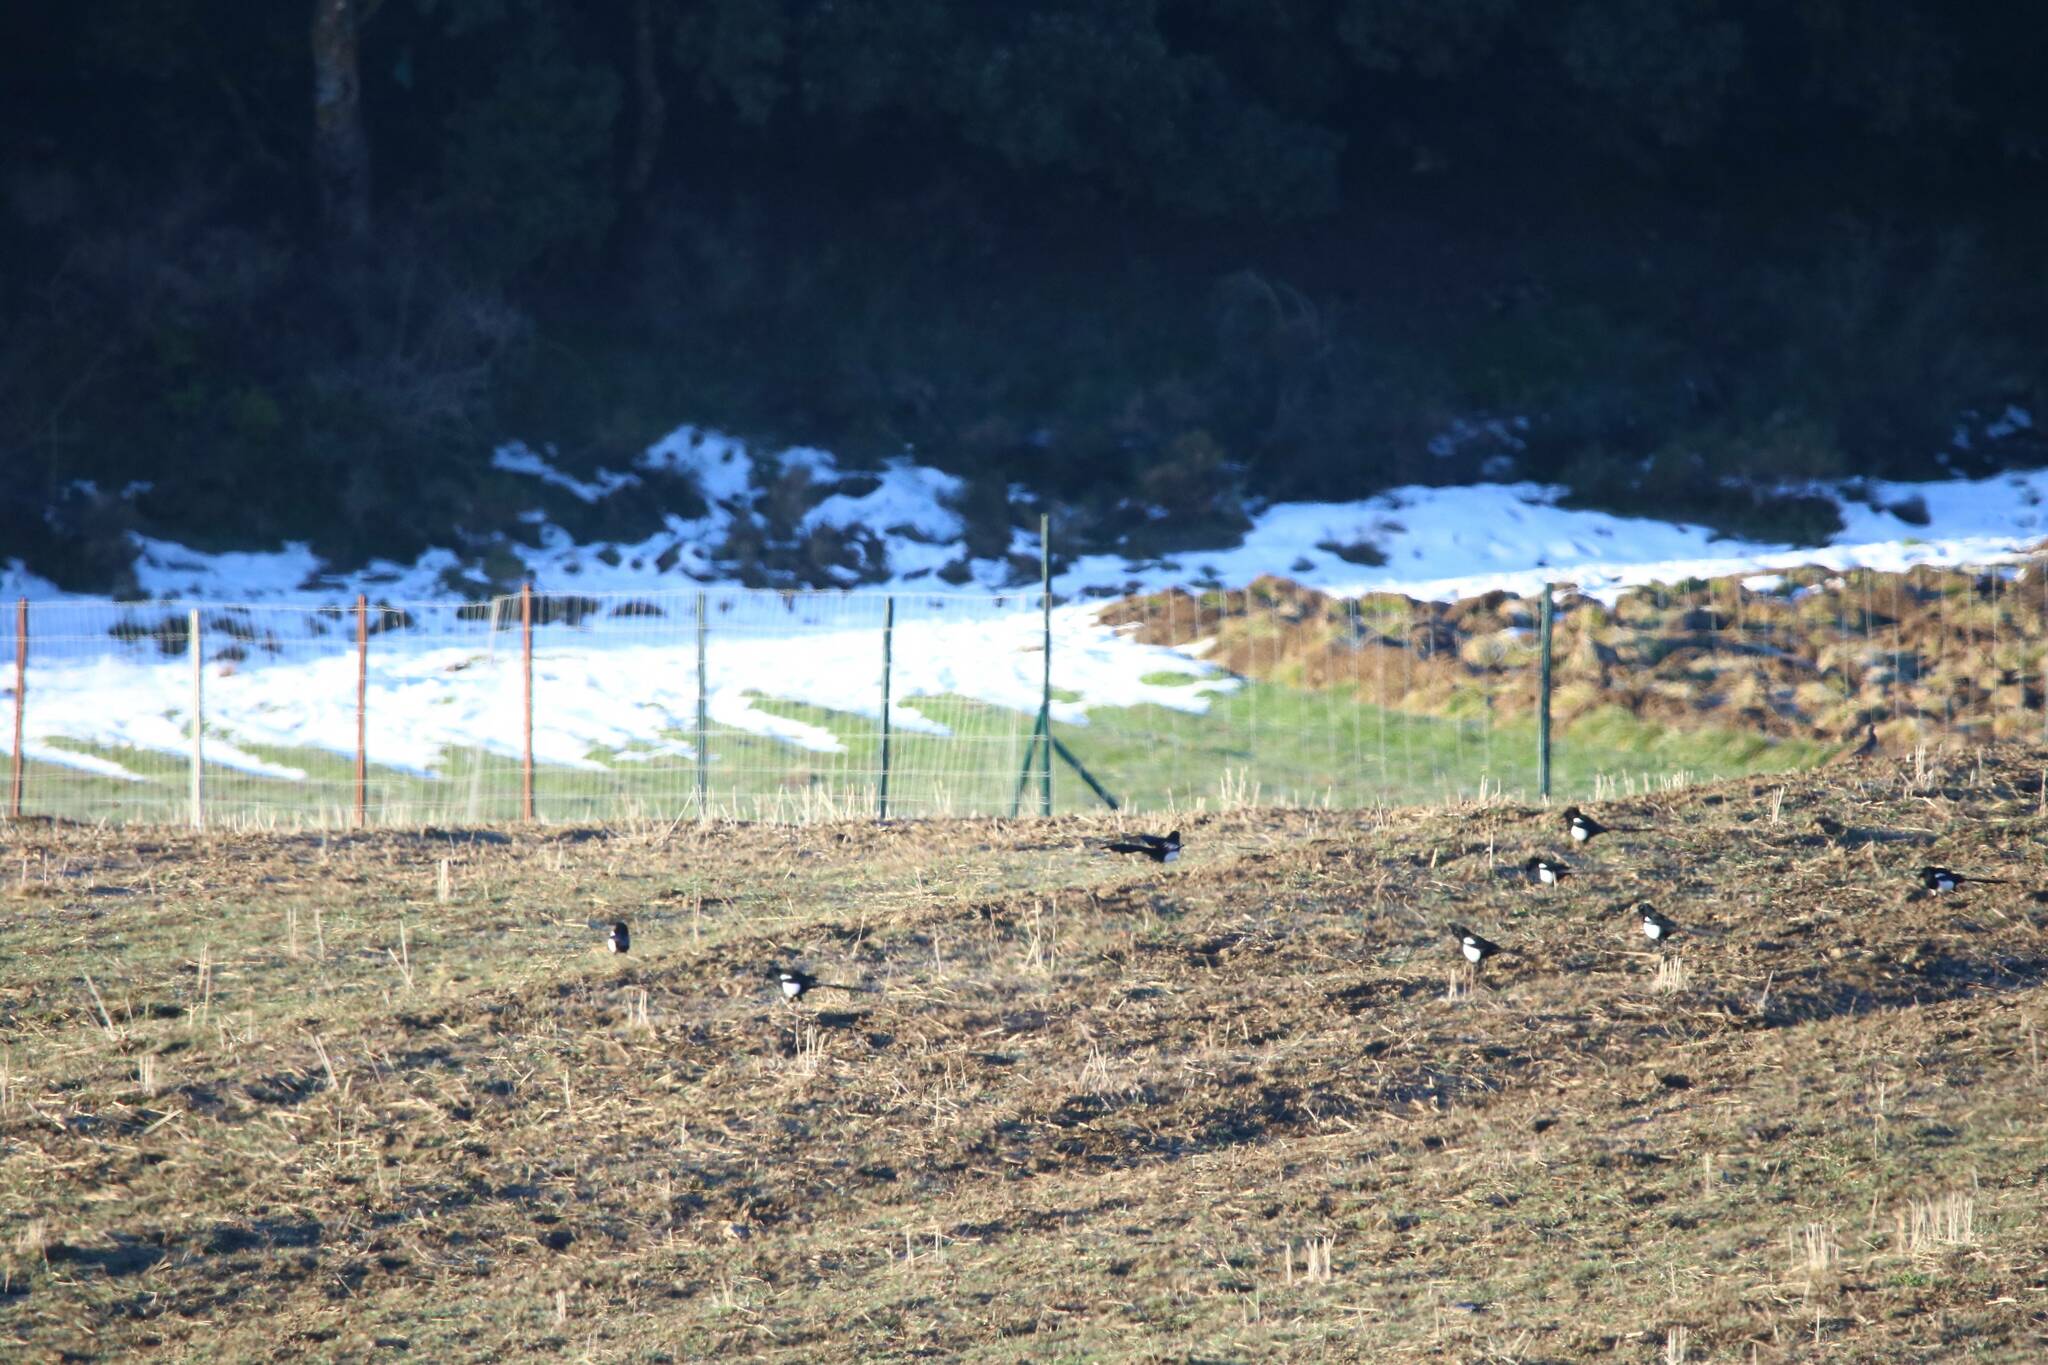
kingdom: Animalia
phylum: Chordata
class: Aves
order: Passeriformes
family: Corvidae
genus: Pica
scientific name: Pica mauritanica
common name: Maghreb magpie
